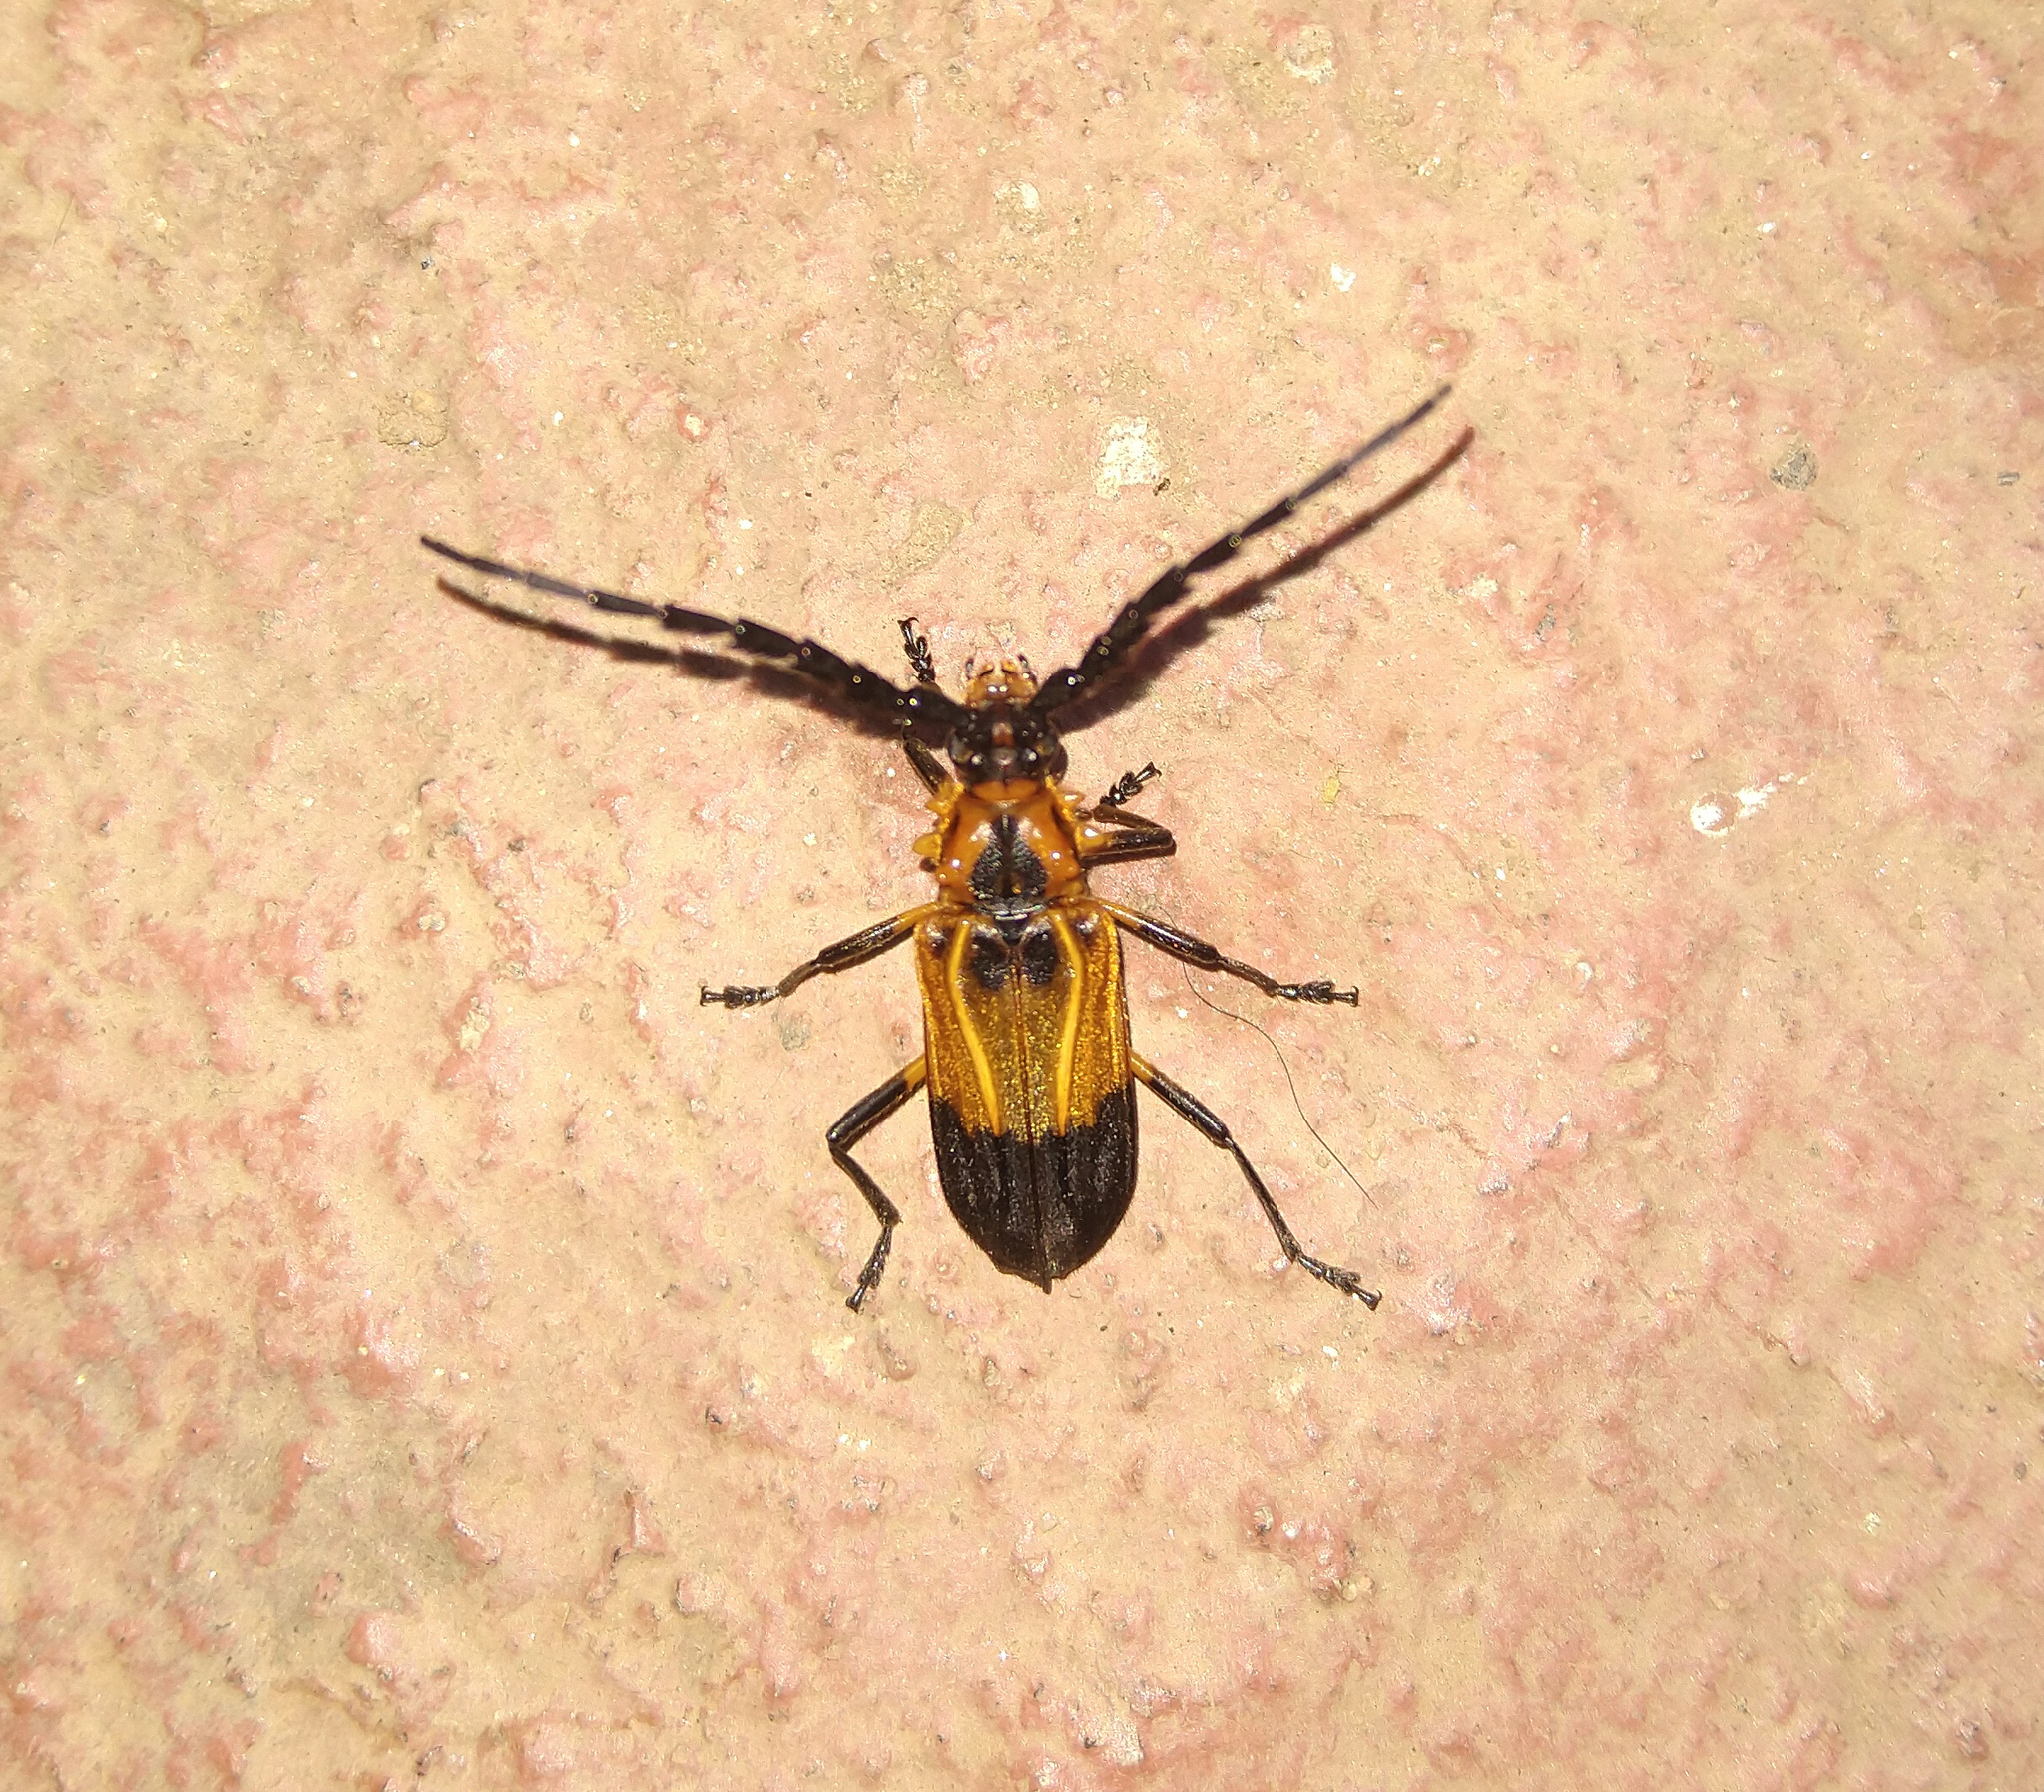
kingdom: Animalia
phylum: Arthropoda
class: Insecta
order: Coleoptera
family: Cerambycidae
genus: Batus
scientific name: Batus hirticornis
